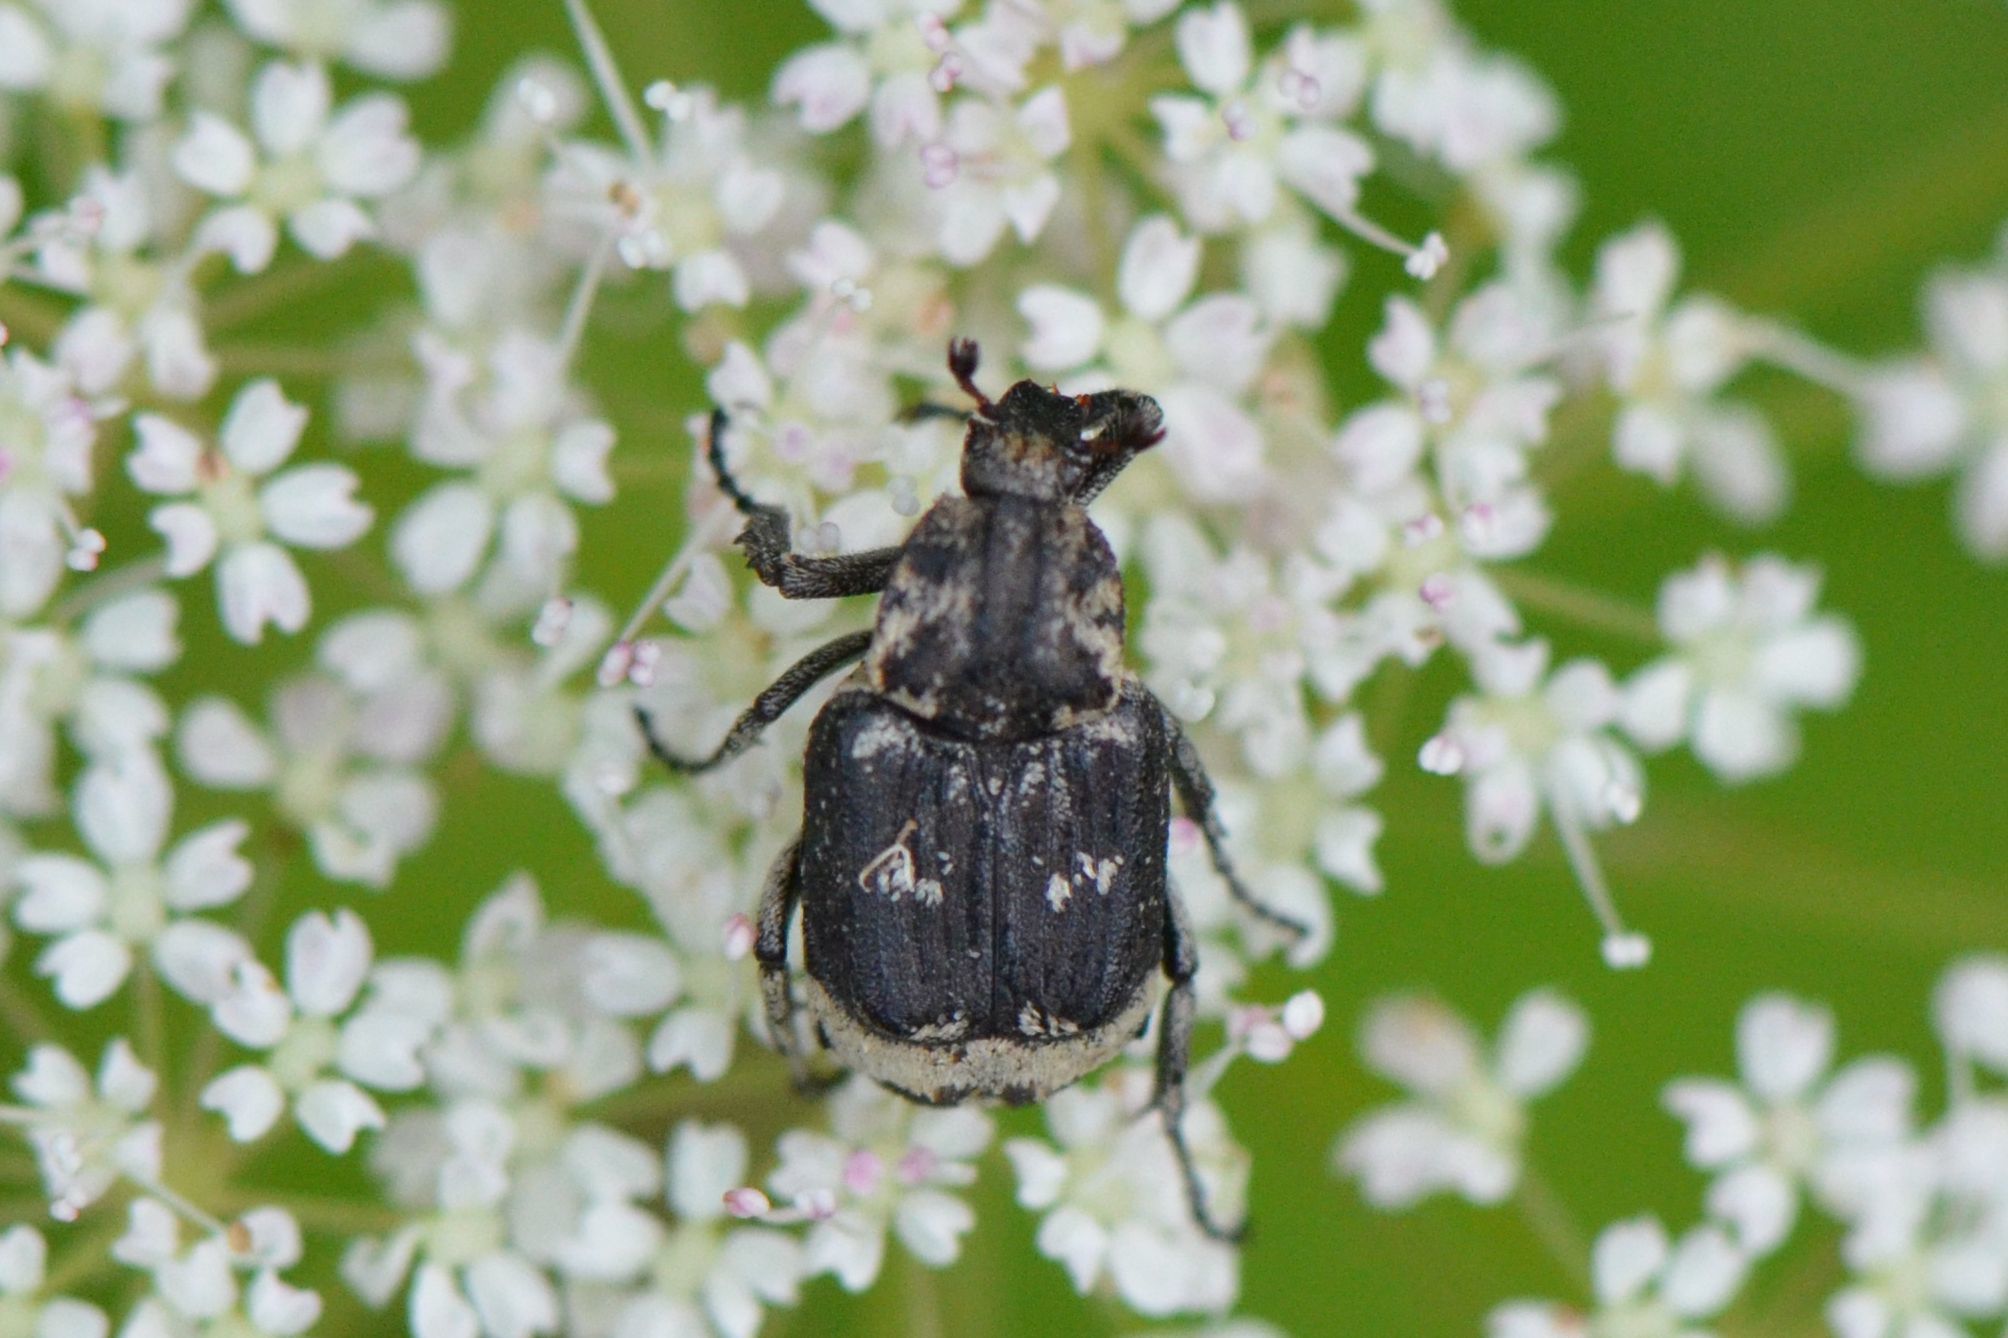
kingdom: Animalia
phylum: Arthropoda
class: Insecta
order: Coleoptera
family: Scarabaeidae
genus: Valgus
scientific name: Valgus hemipterus
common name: Bug flower chafer
